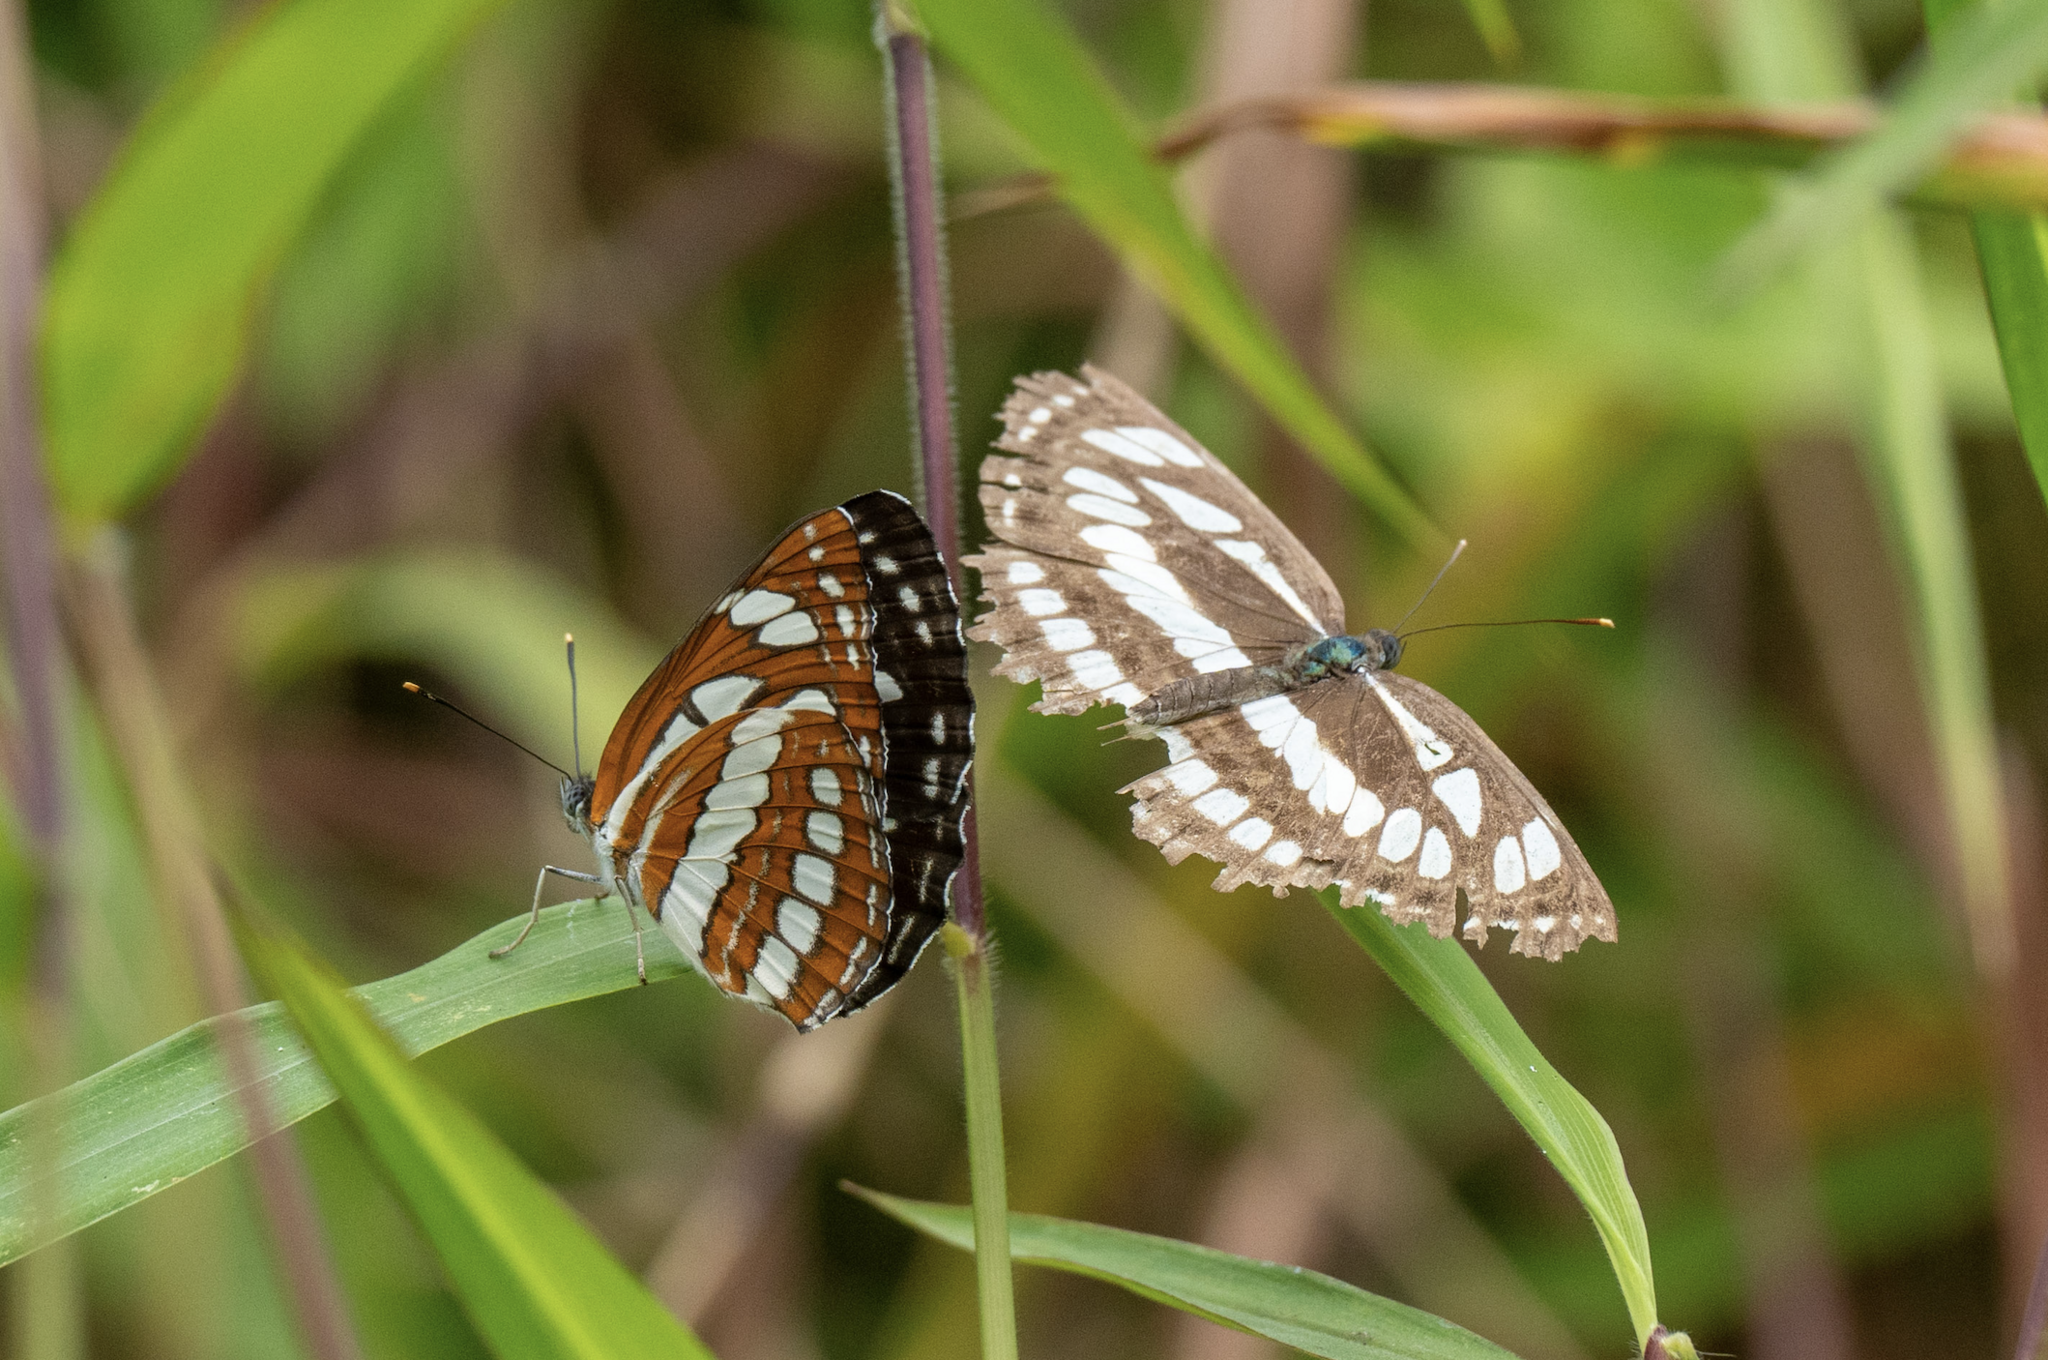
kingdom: Animalia
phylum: Arthropoda
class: Insecta
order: Lepidoptera
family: Nymphalidae
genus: Neptis
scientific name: Neptis hylas
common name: Common sailer
